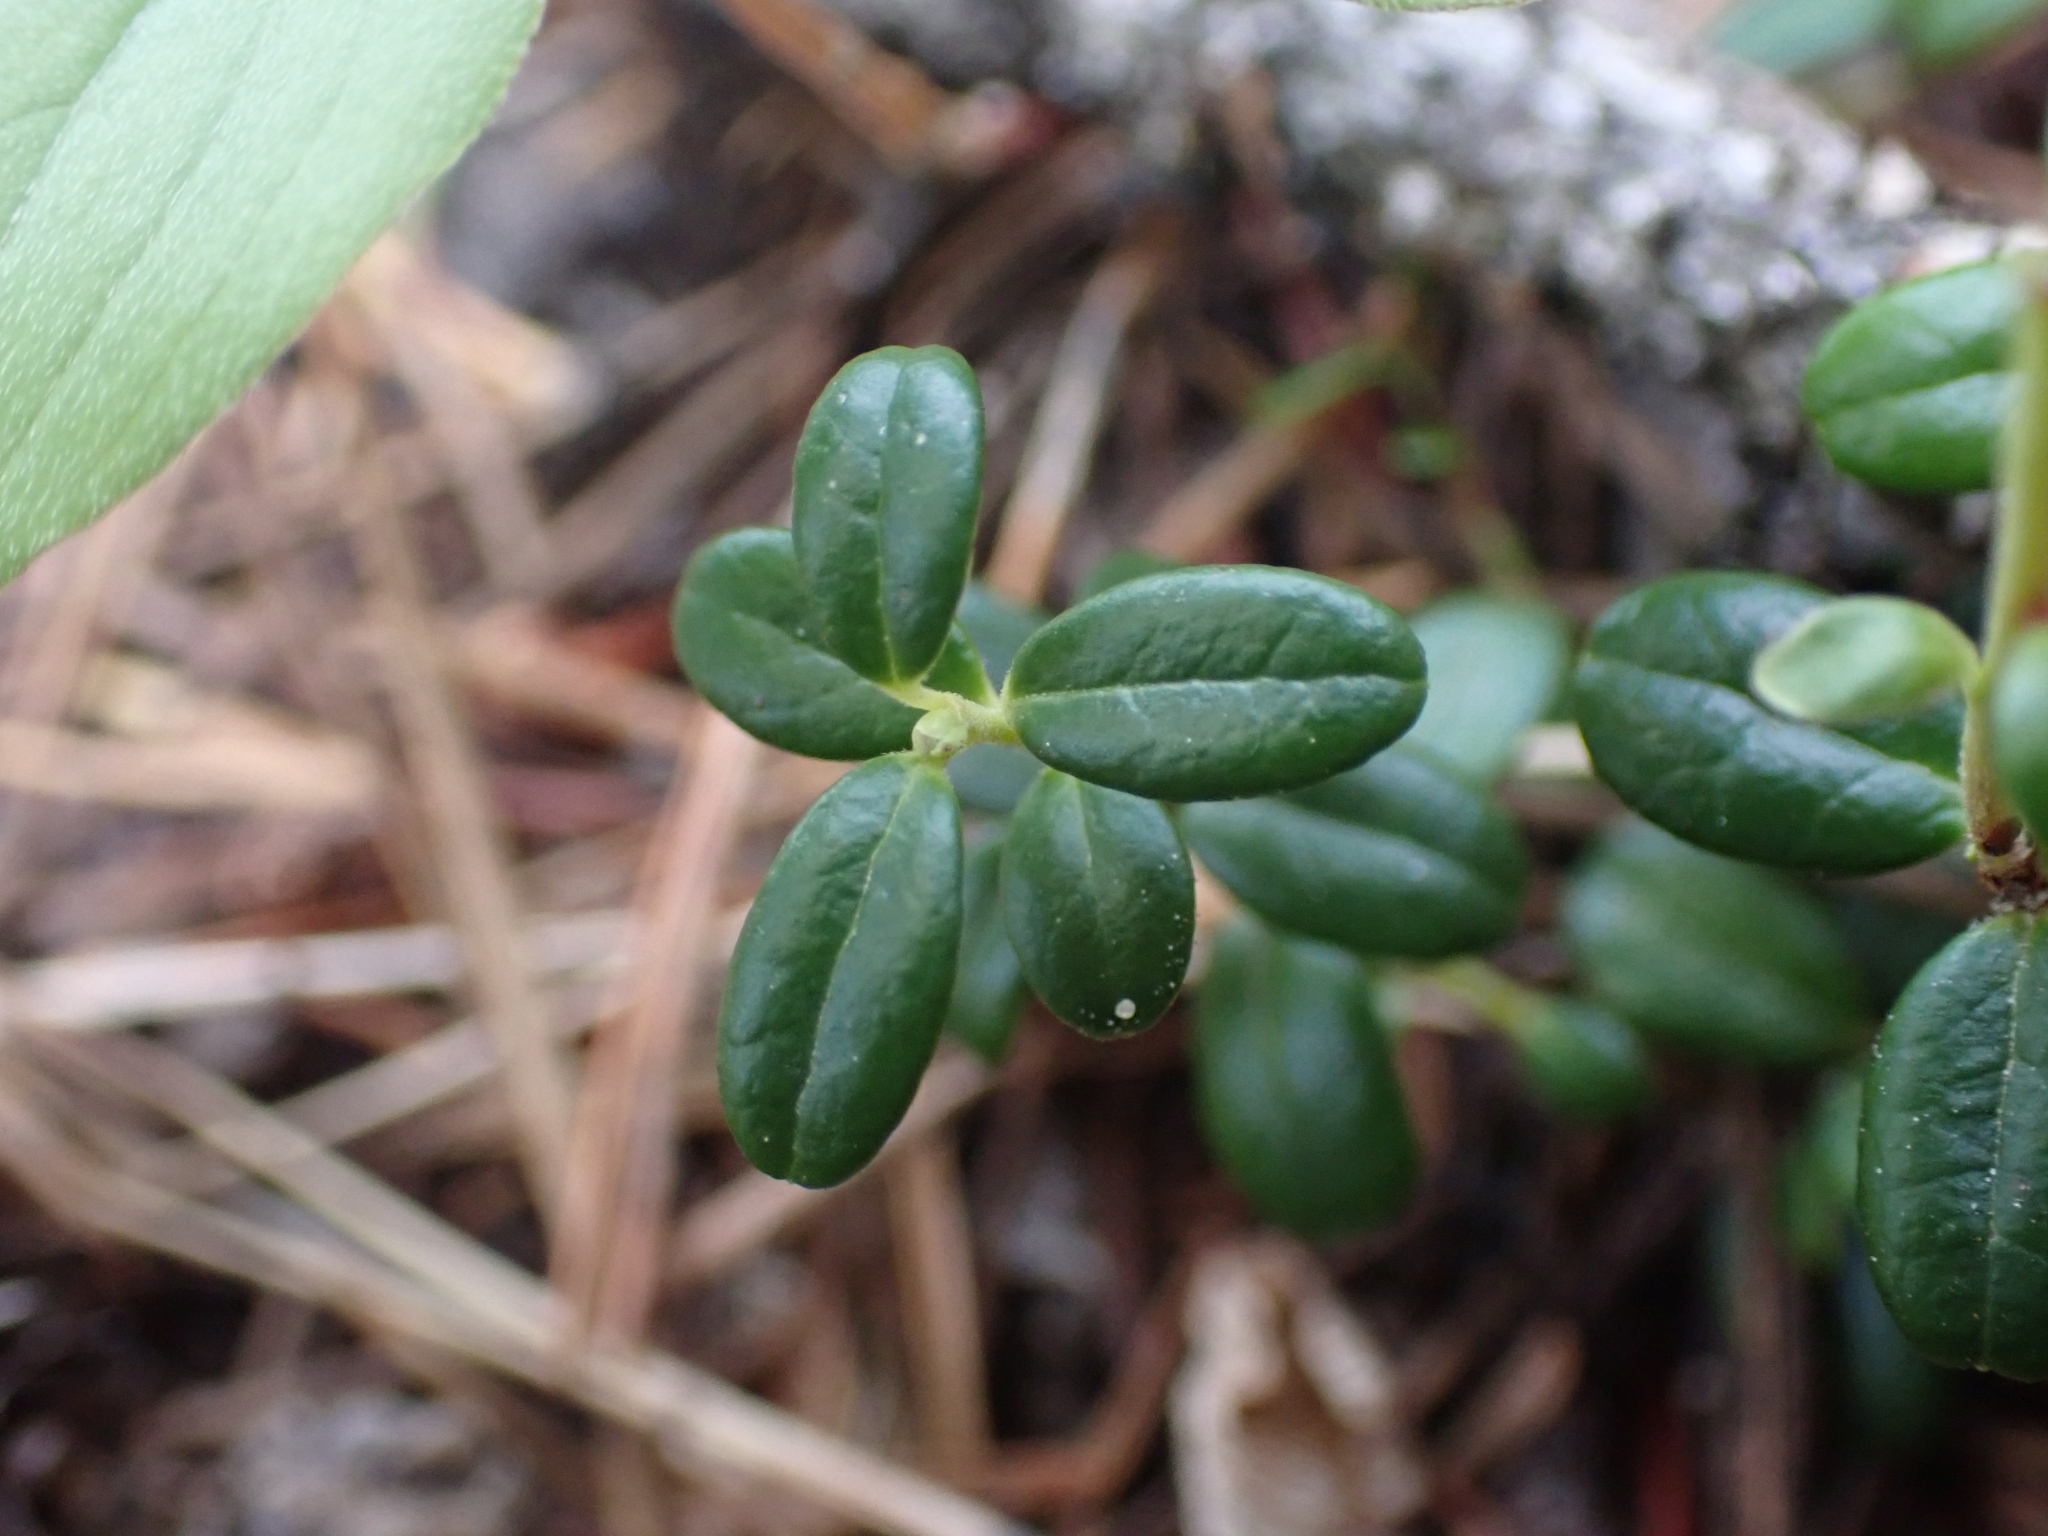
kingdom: Plantae
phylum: Tracheophyta
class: Magnoliopsida
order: Ericales
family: Ericaceae
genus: Vaccinium
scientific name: Vaccinium vitis-idaea
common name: Cowberry
